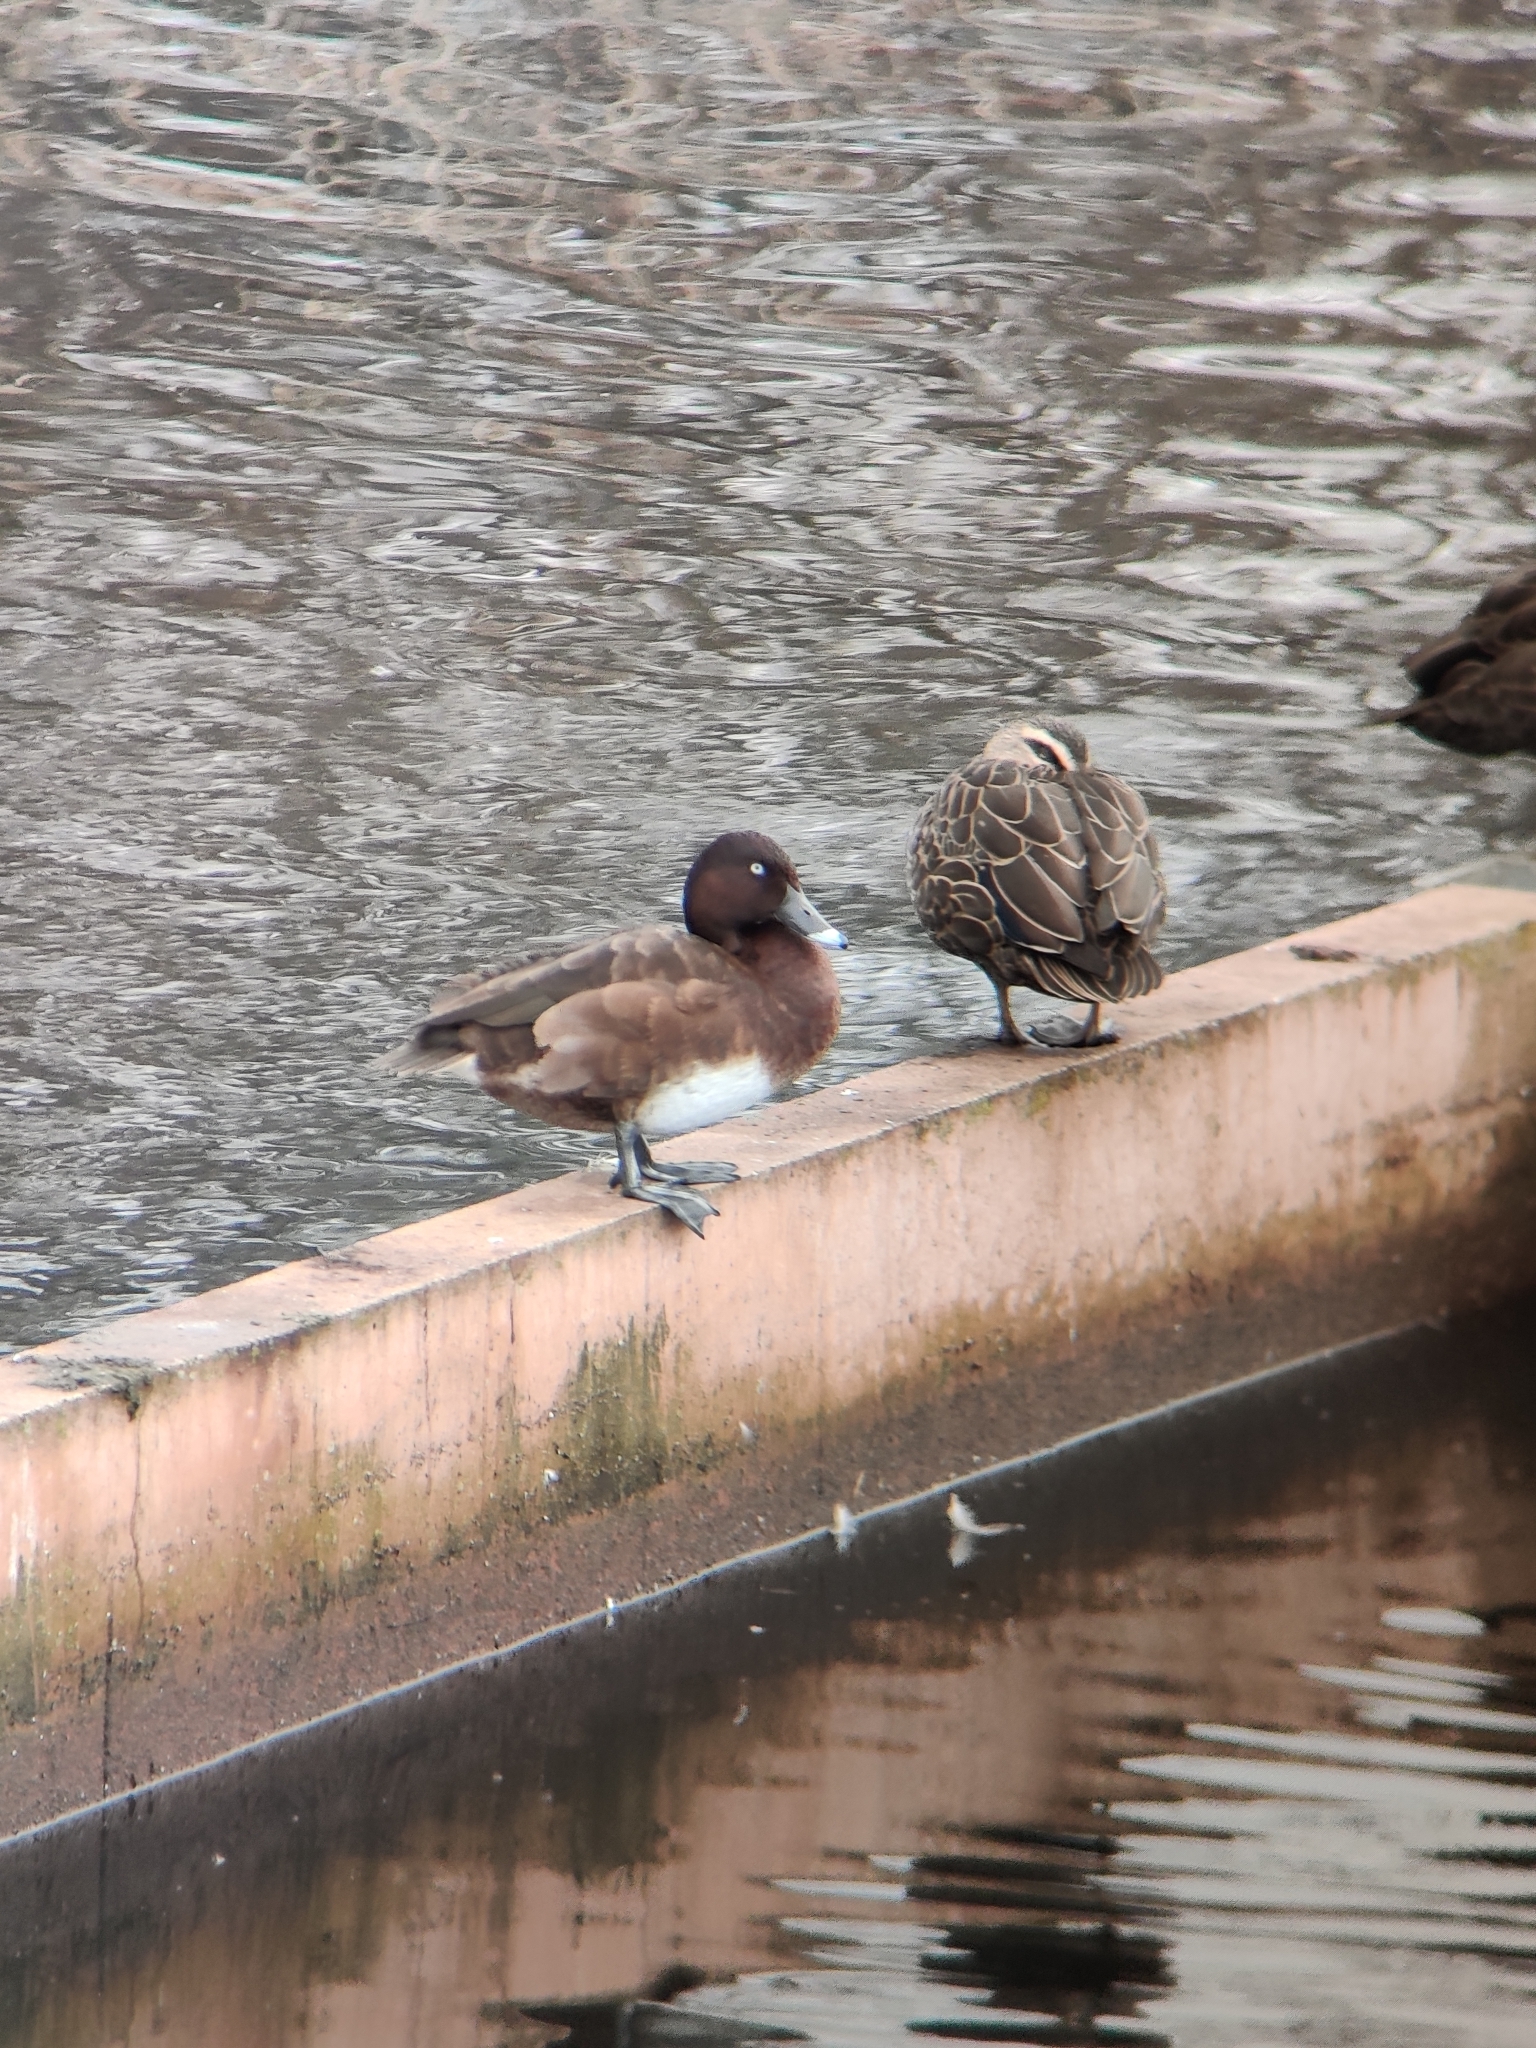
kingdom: Animalia
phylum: Chordata
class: Aves
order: Anseriformes
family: Anatidae
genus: Aythya
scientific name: Aythya australis
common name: Hardhead
